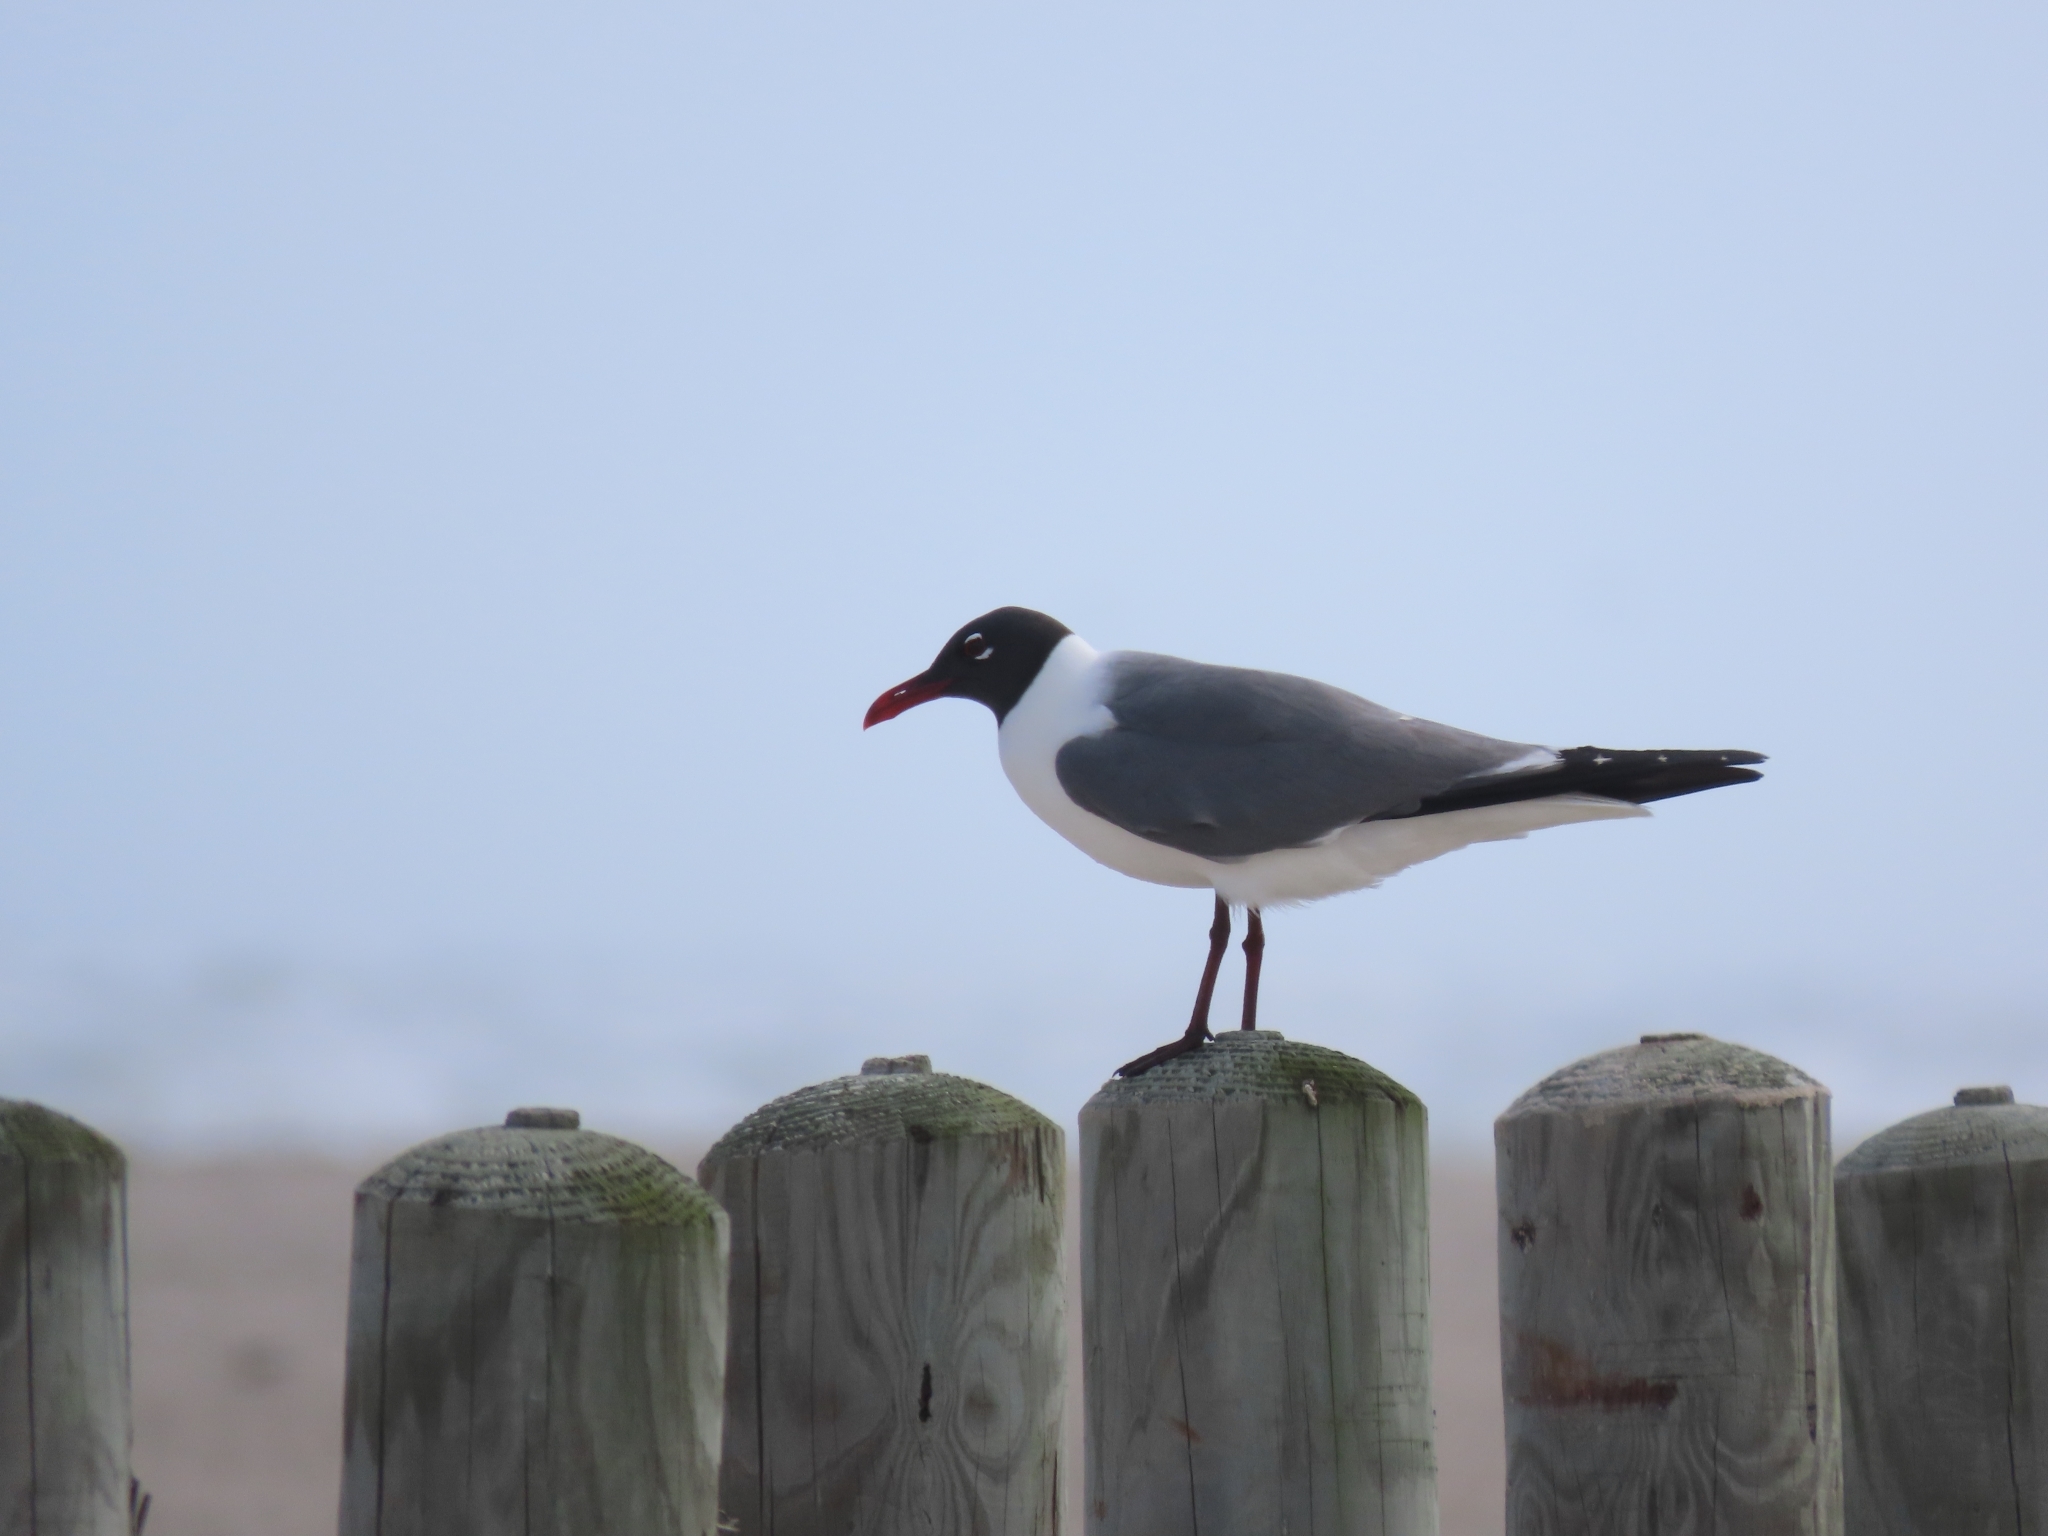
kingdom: Animalia
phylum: Chordata
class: Aves
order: Charadriiformes
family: Laridae
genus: Leucophaeus
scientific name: Leucophaeus atricilla
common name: Laughing gull
